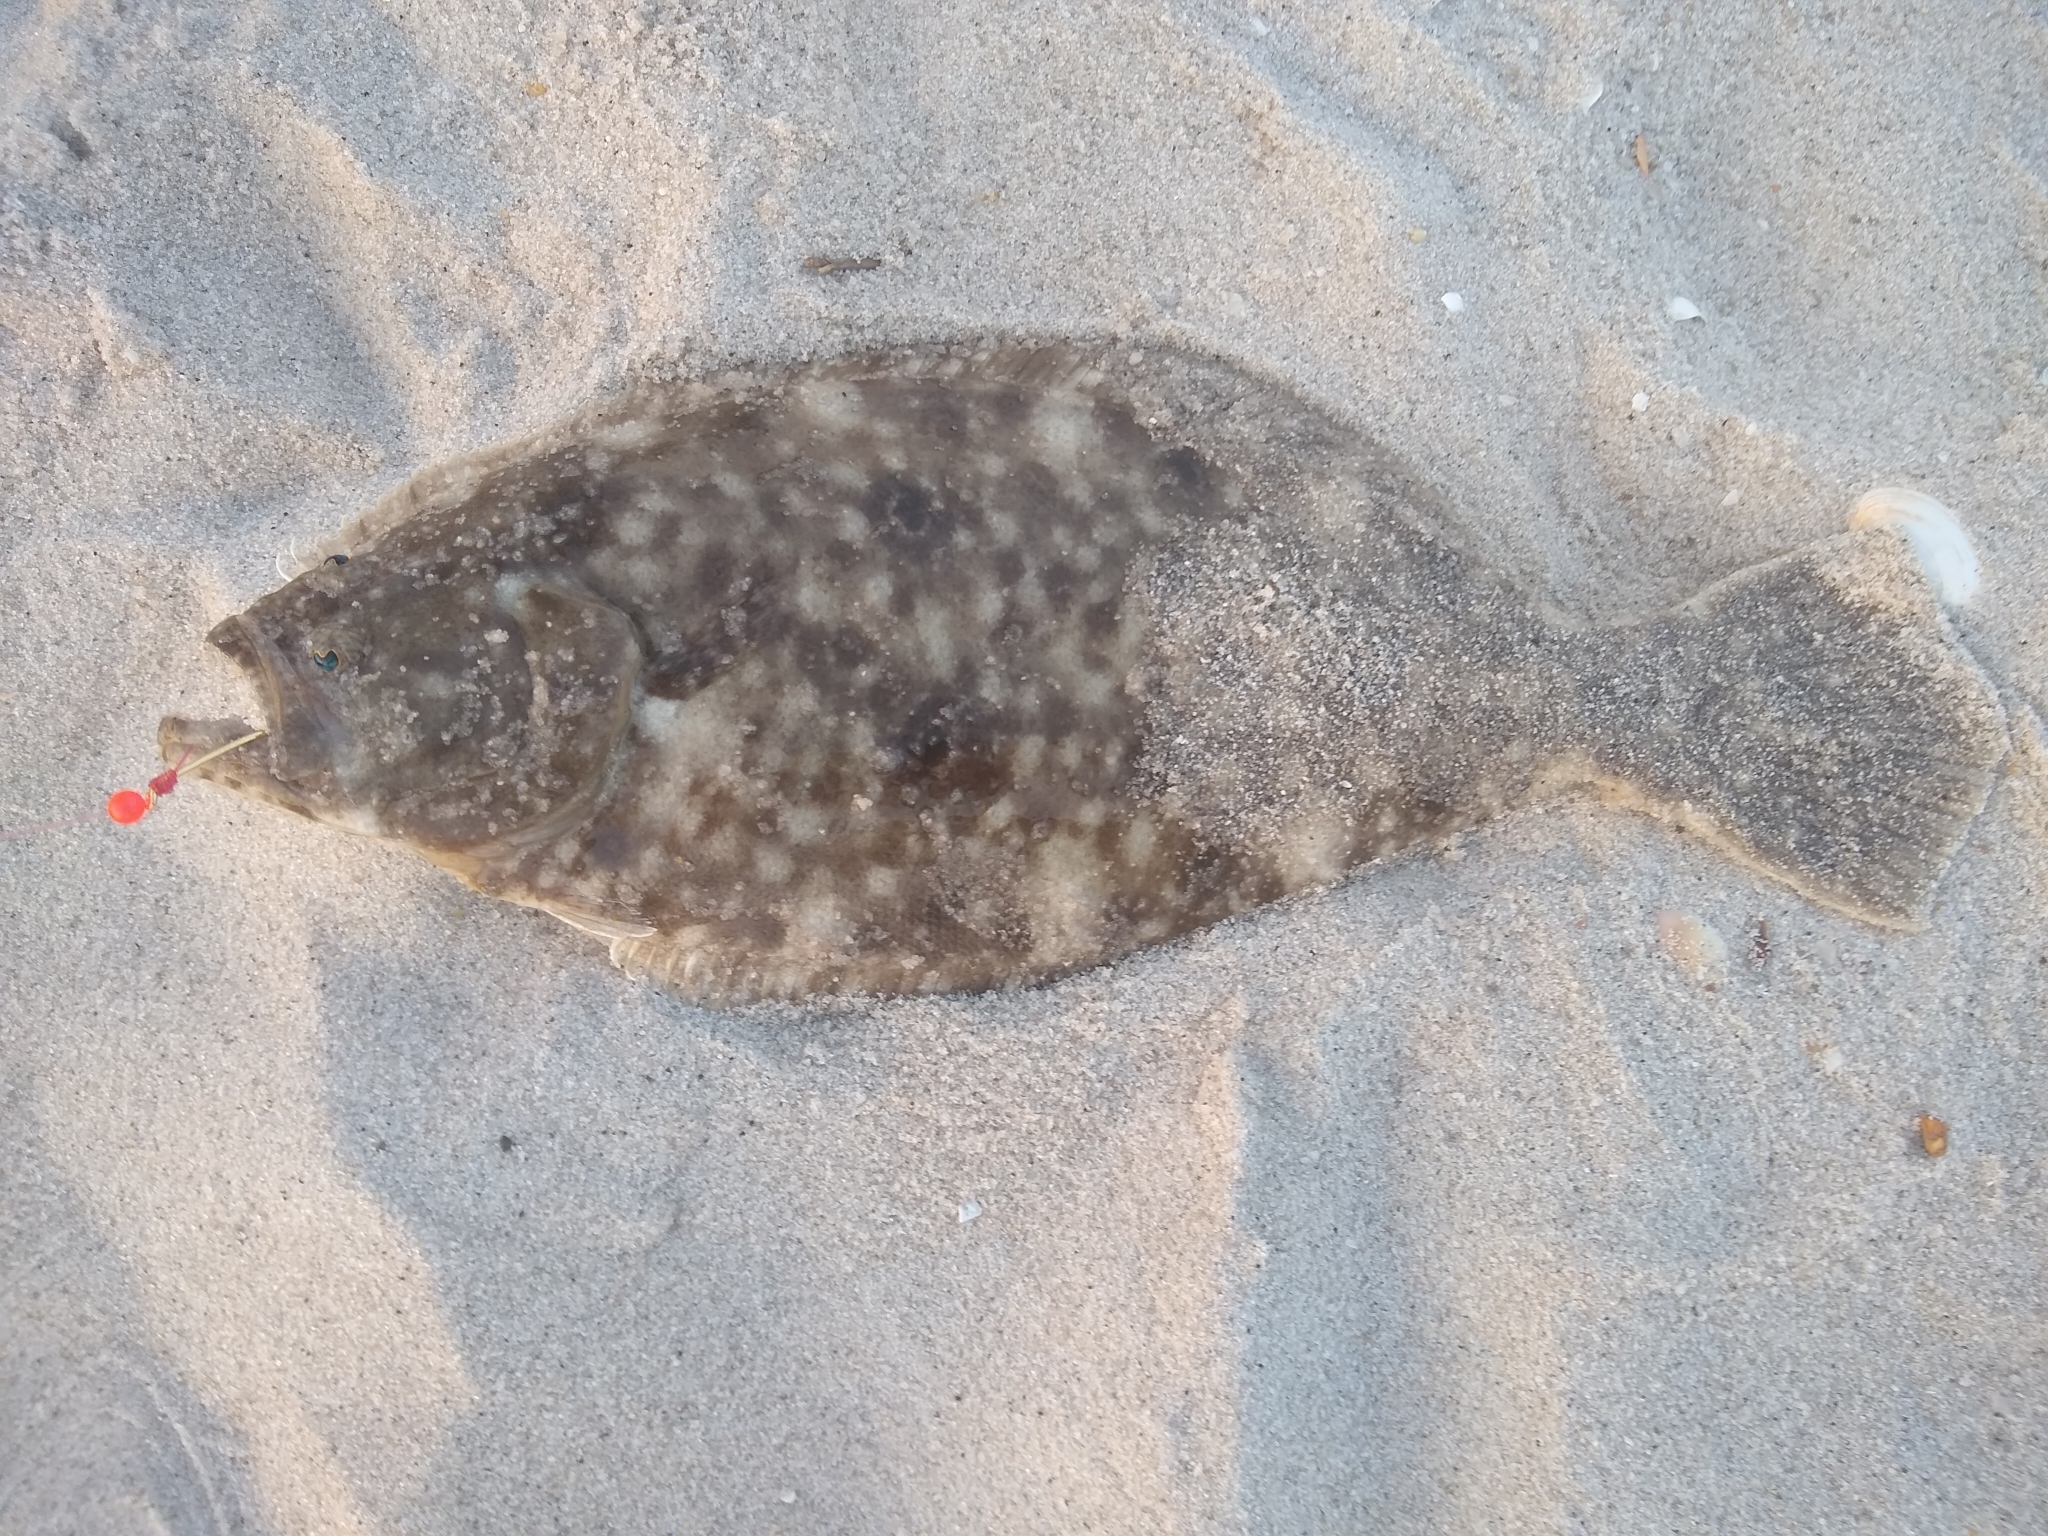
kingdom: Animalia
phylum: Chordata
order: Pleuronectiformes
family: Paralichthyidae
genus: Paralichthys
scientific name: Paralichthys dentatus
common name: Summer flounder
